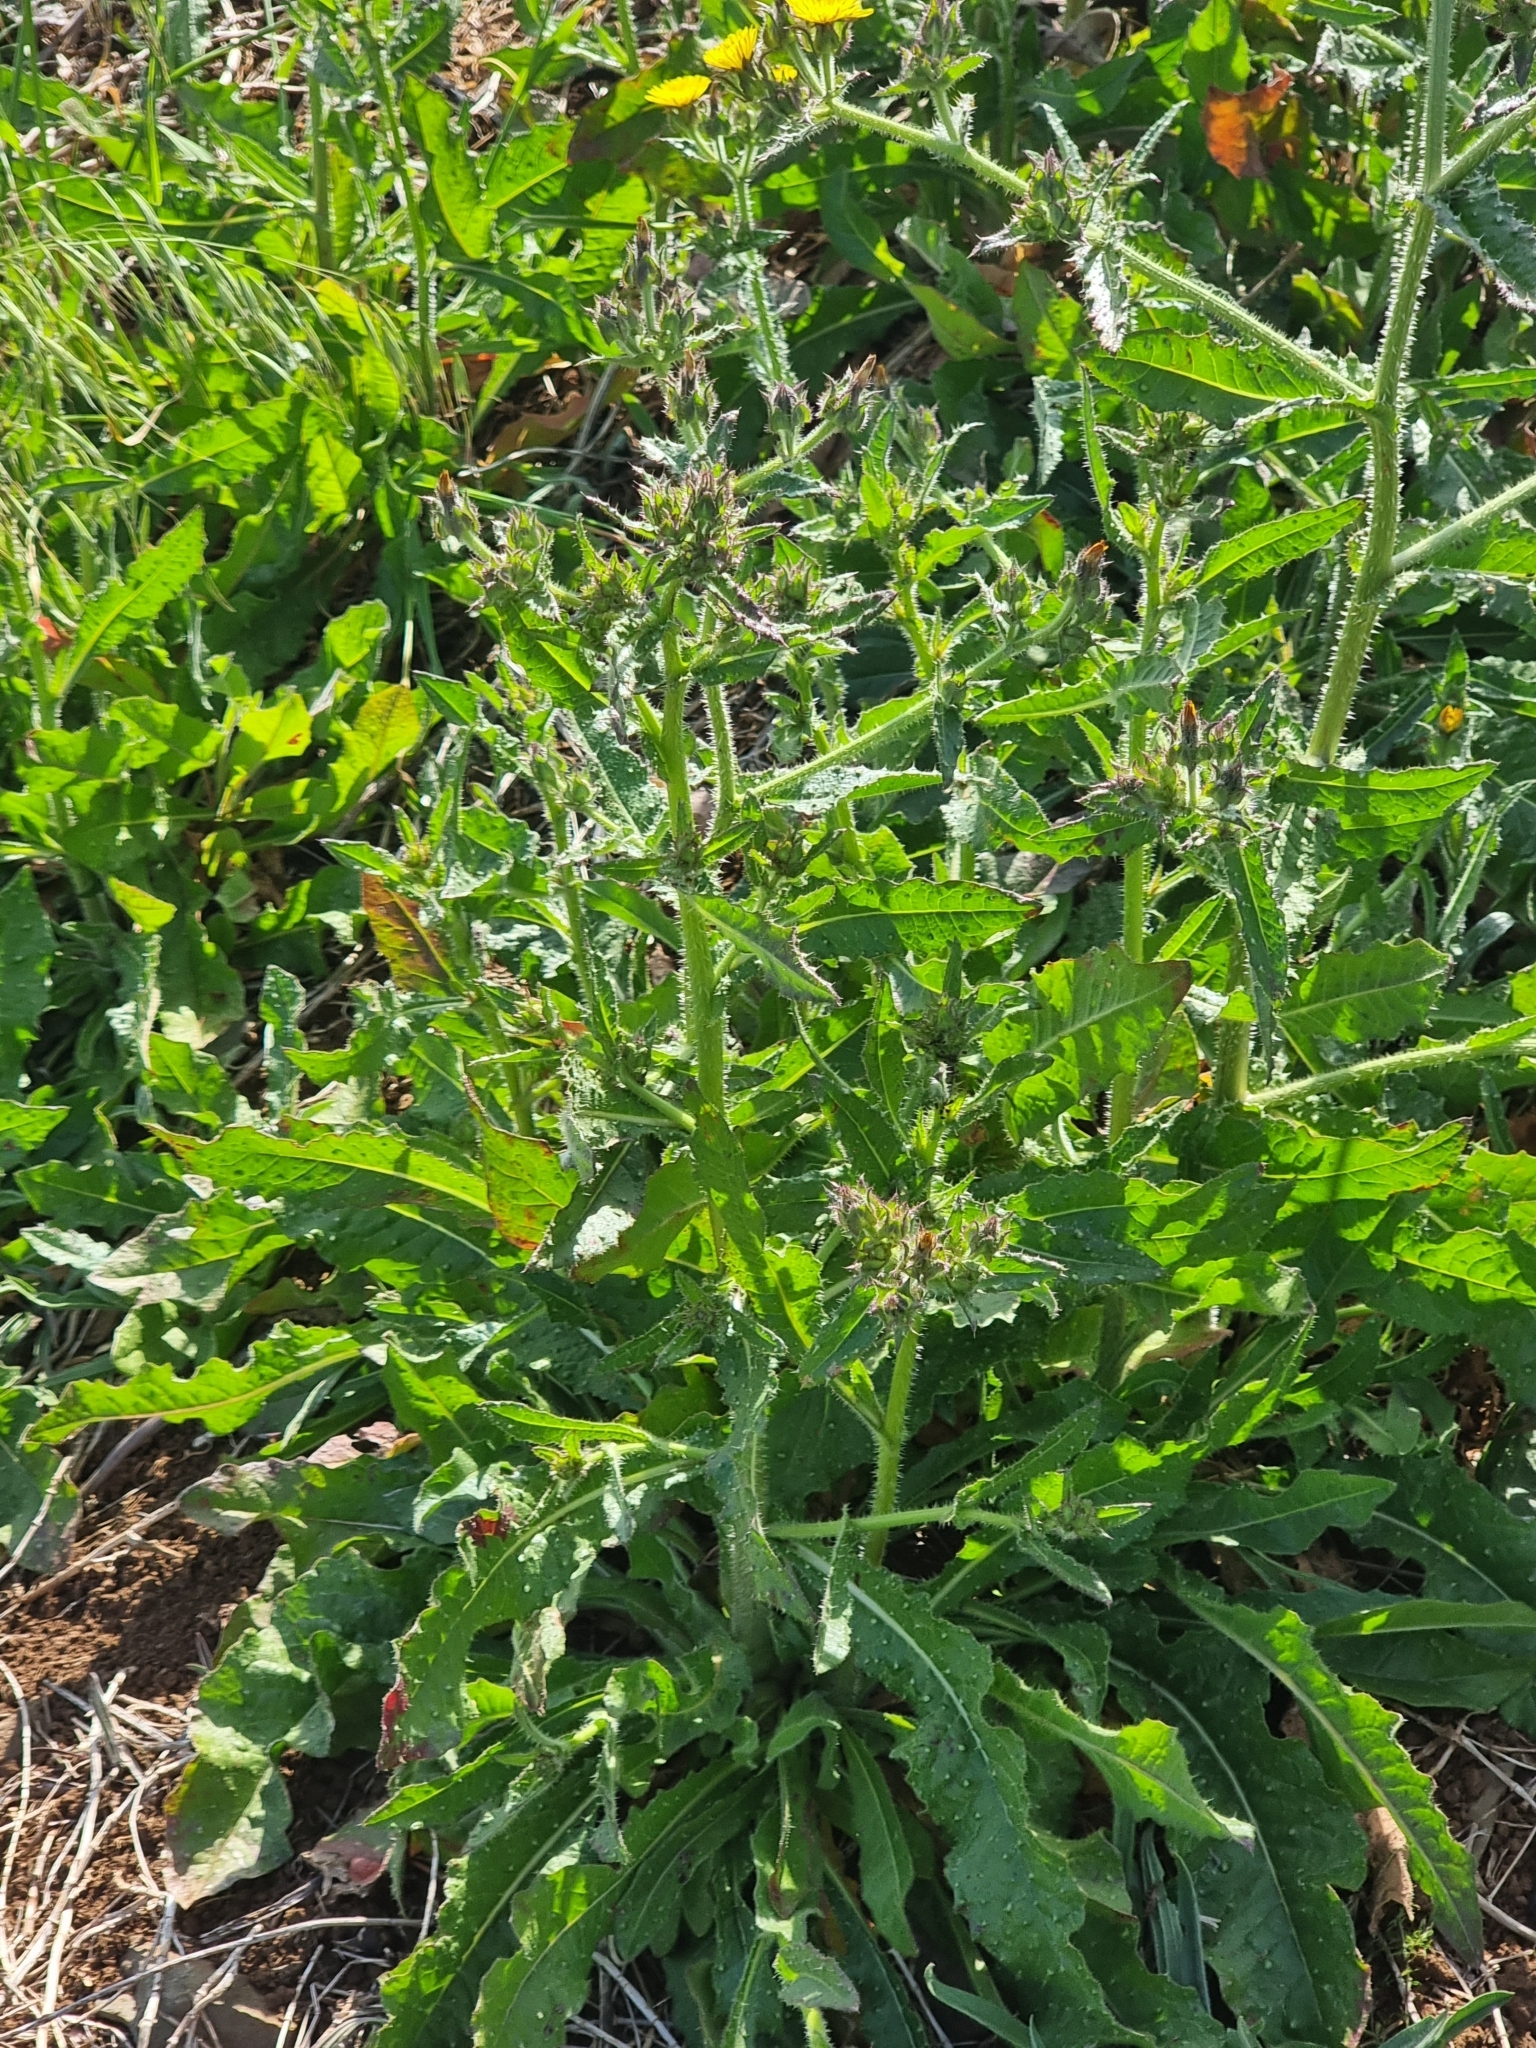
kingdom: Plantae
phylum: Tracheophyta
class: Magnoliopsida
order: Asterales
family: Asteraceae
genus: Helminthotheca
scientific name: Helminthotheca echioides
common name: Ox-tongue
